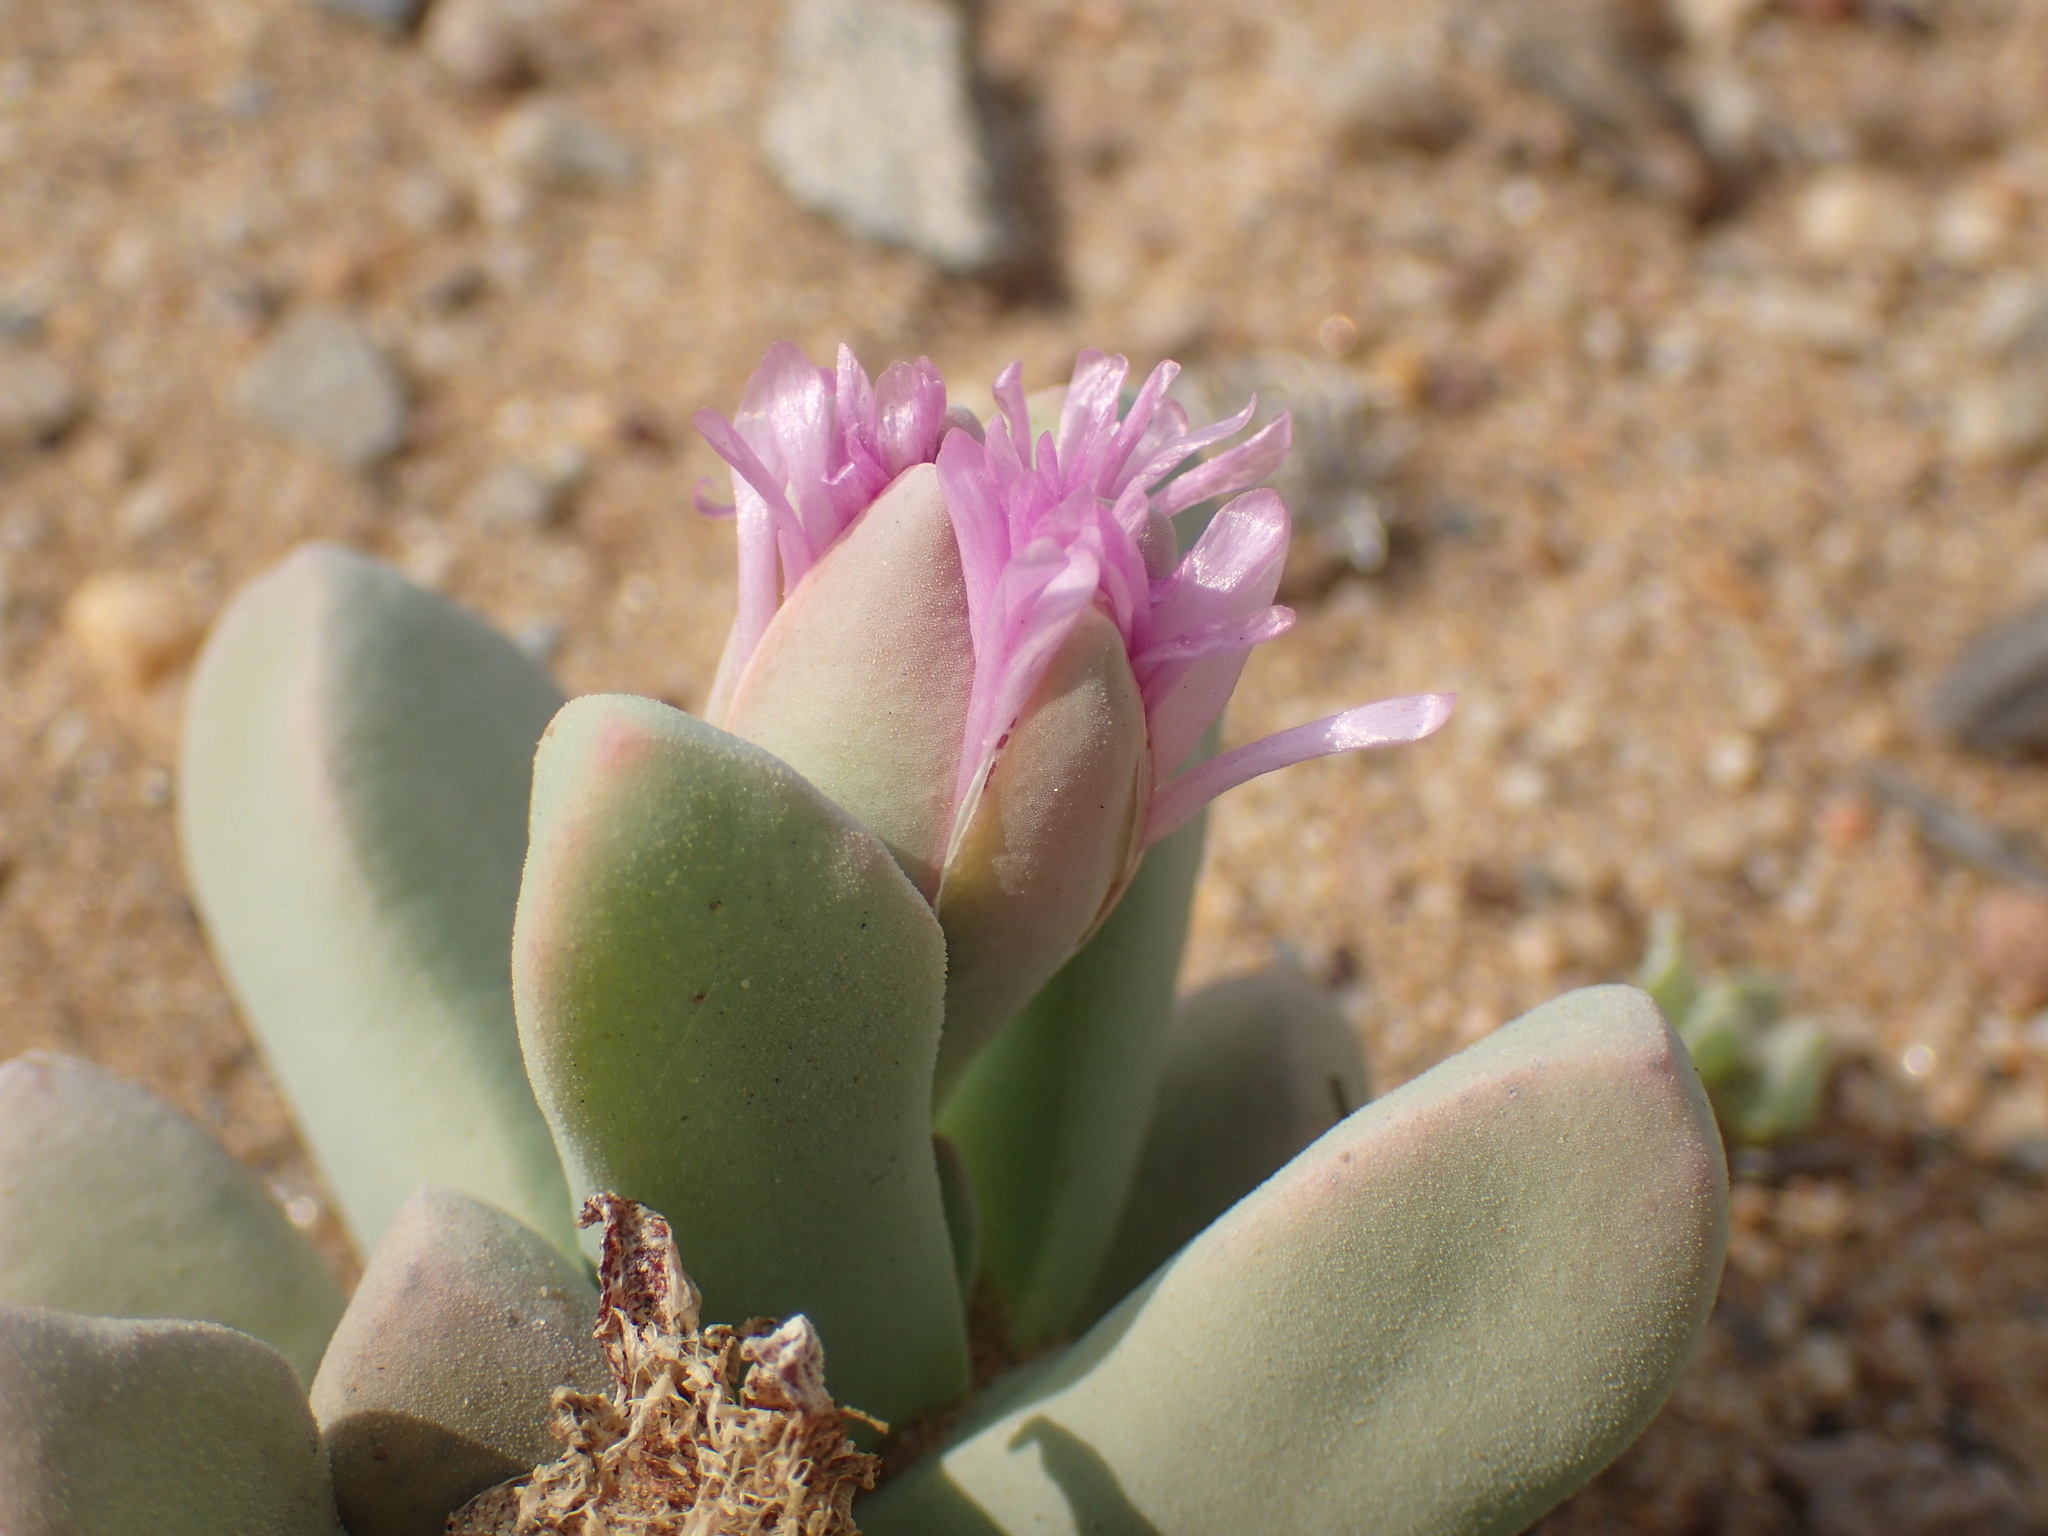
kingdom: Plantae
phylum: Tracheophyta
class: Magnoliopsida
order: Caryophyllales
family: Aizoaceae
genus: Dracophilus
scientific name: Dracophilus Namibia cinerea
